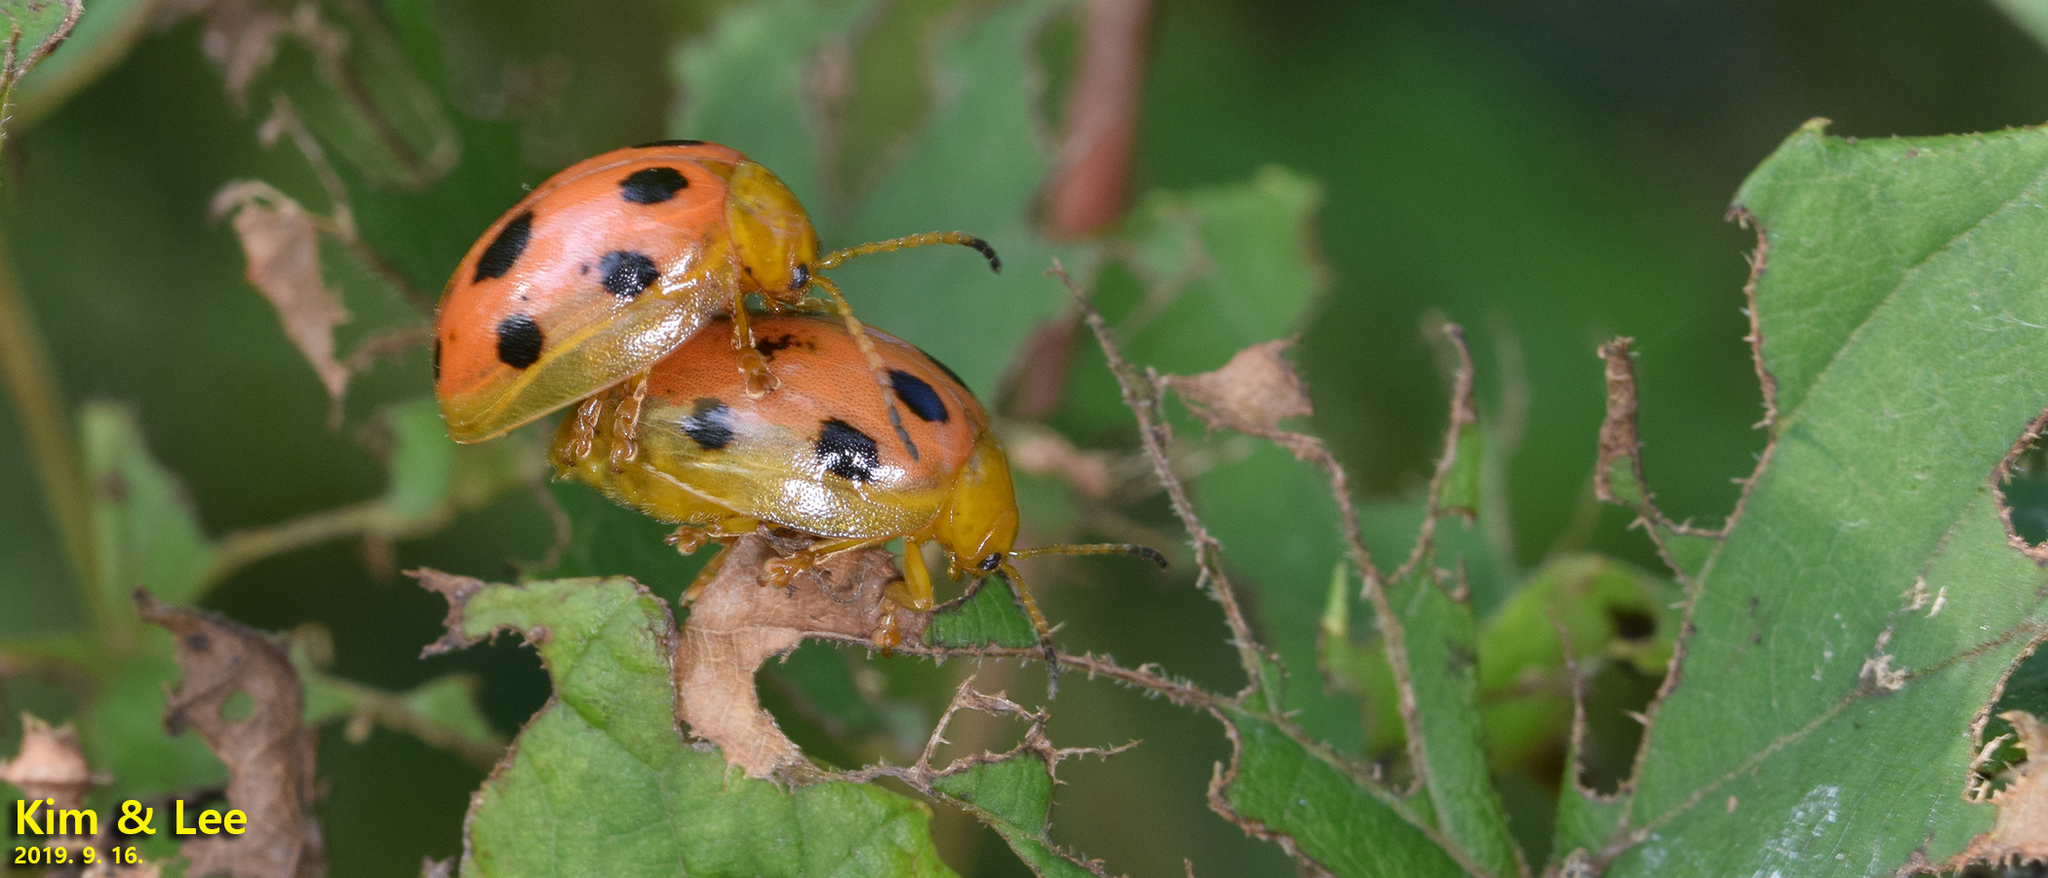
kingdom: Animalia
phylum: Arthropoda
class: Insecta
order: Coleoptera
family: Chrysomelidae
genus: Oides
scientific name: Oides decempunctata
